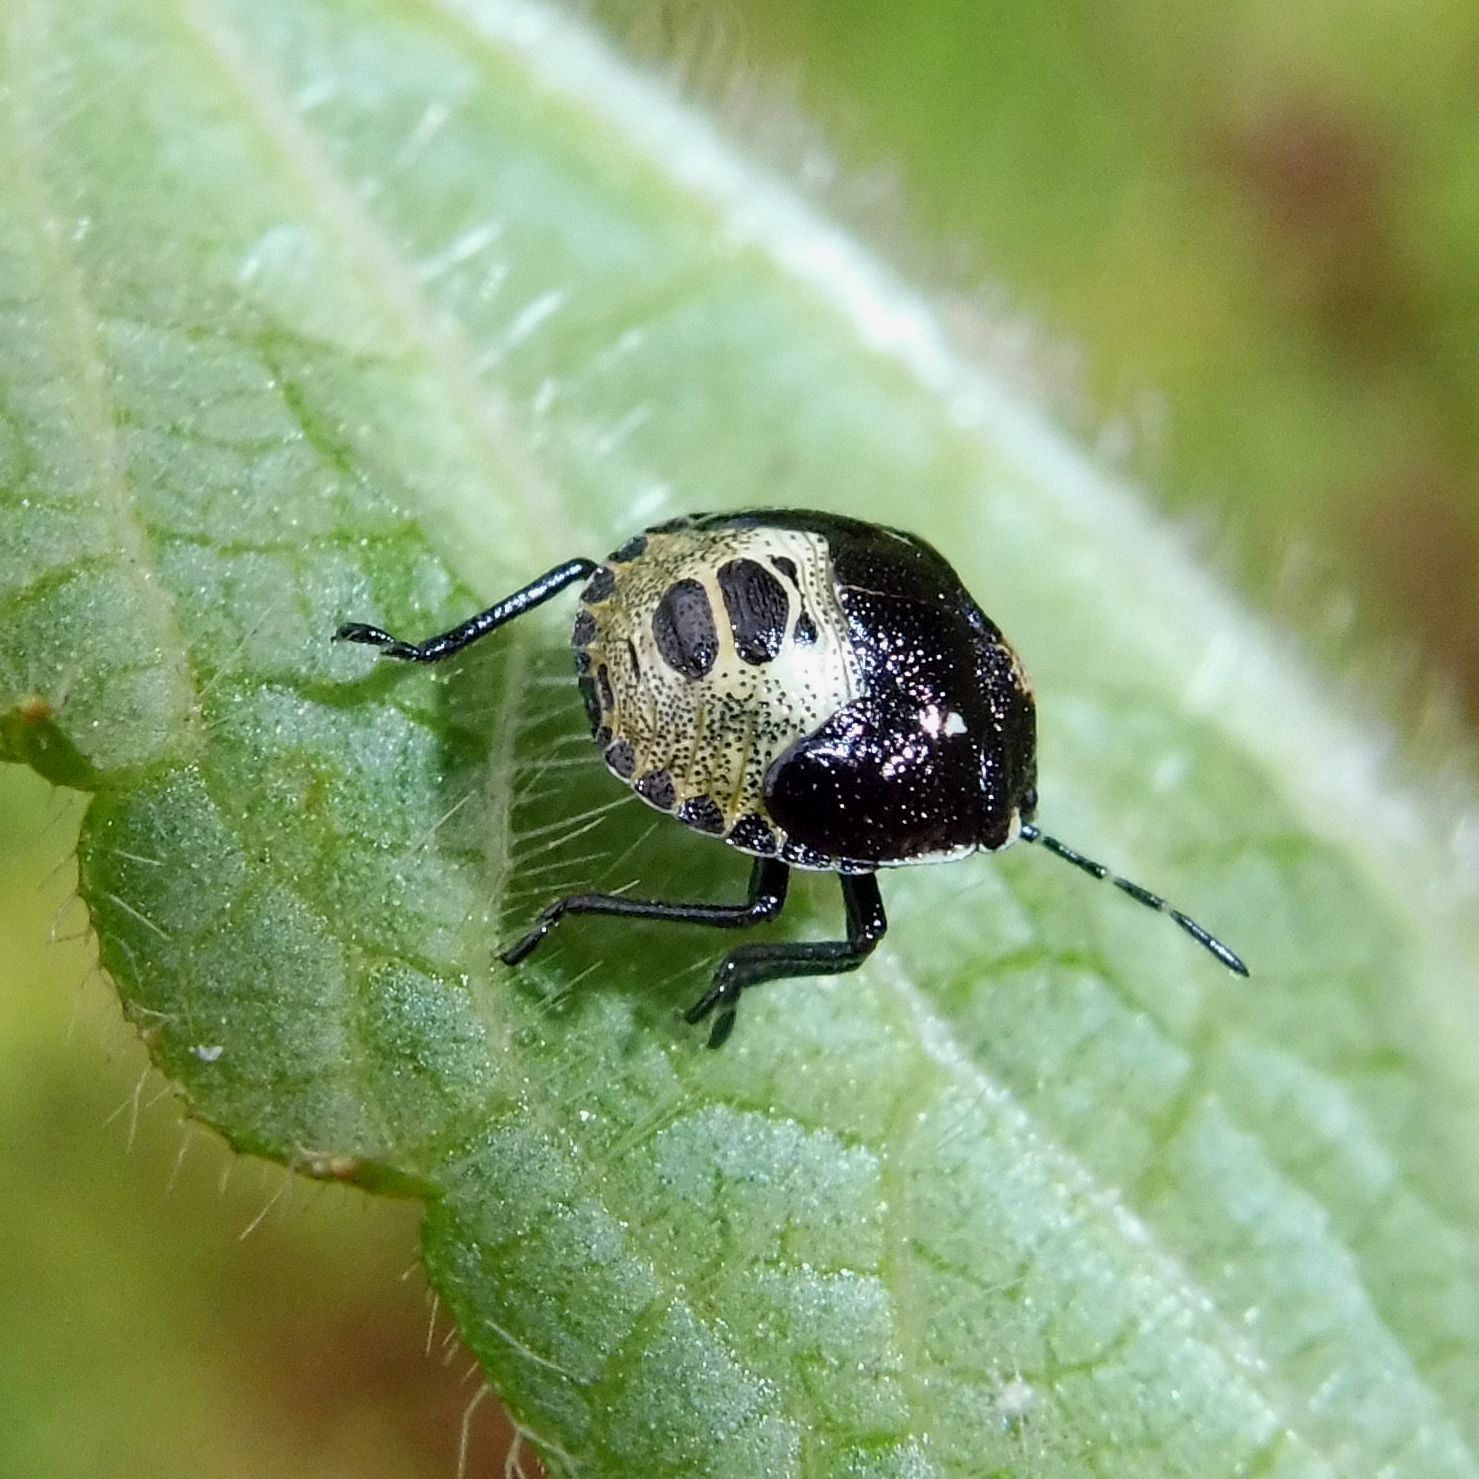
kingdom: Animalia
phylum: Arthropoda
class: Insecta
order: Hemiptera
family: Pentatomidae
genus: Eysarcoris
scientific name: Eysarcoris venustissimus
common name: Woundwort shieldbug
